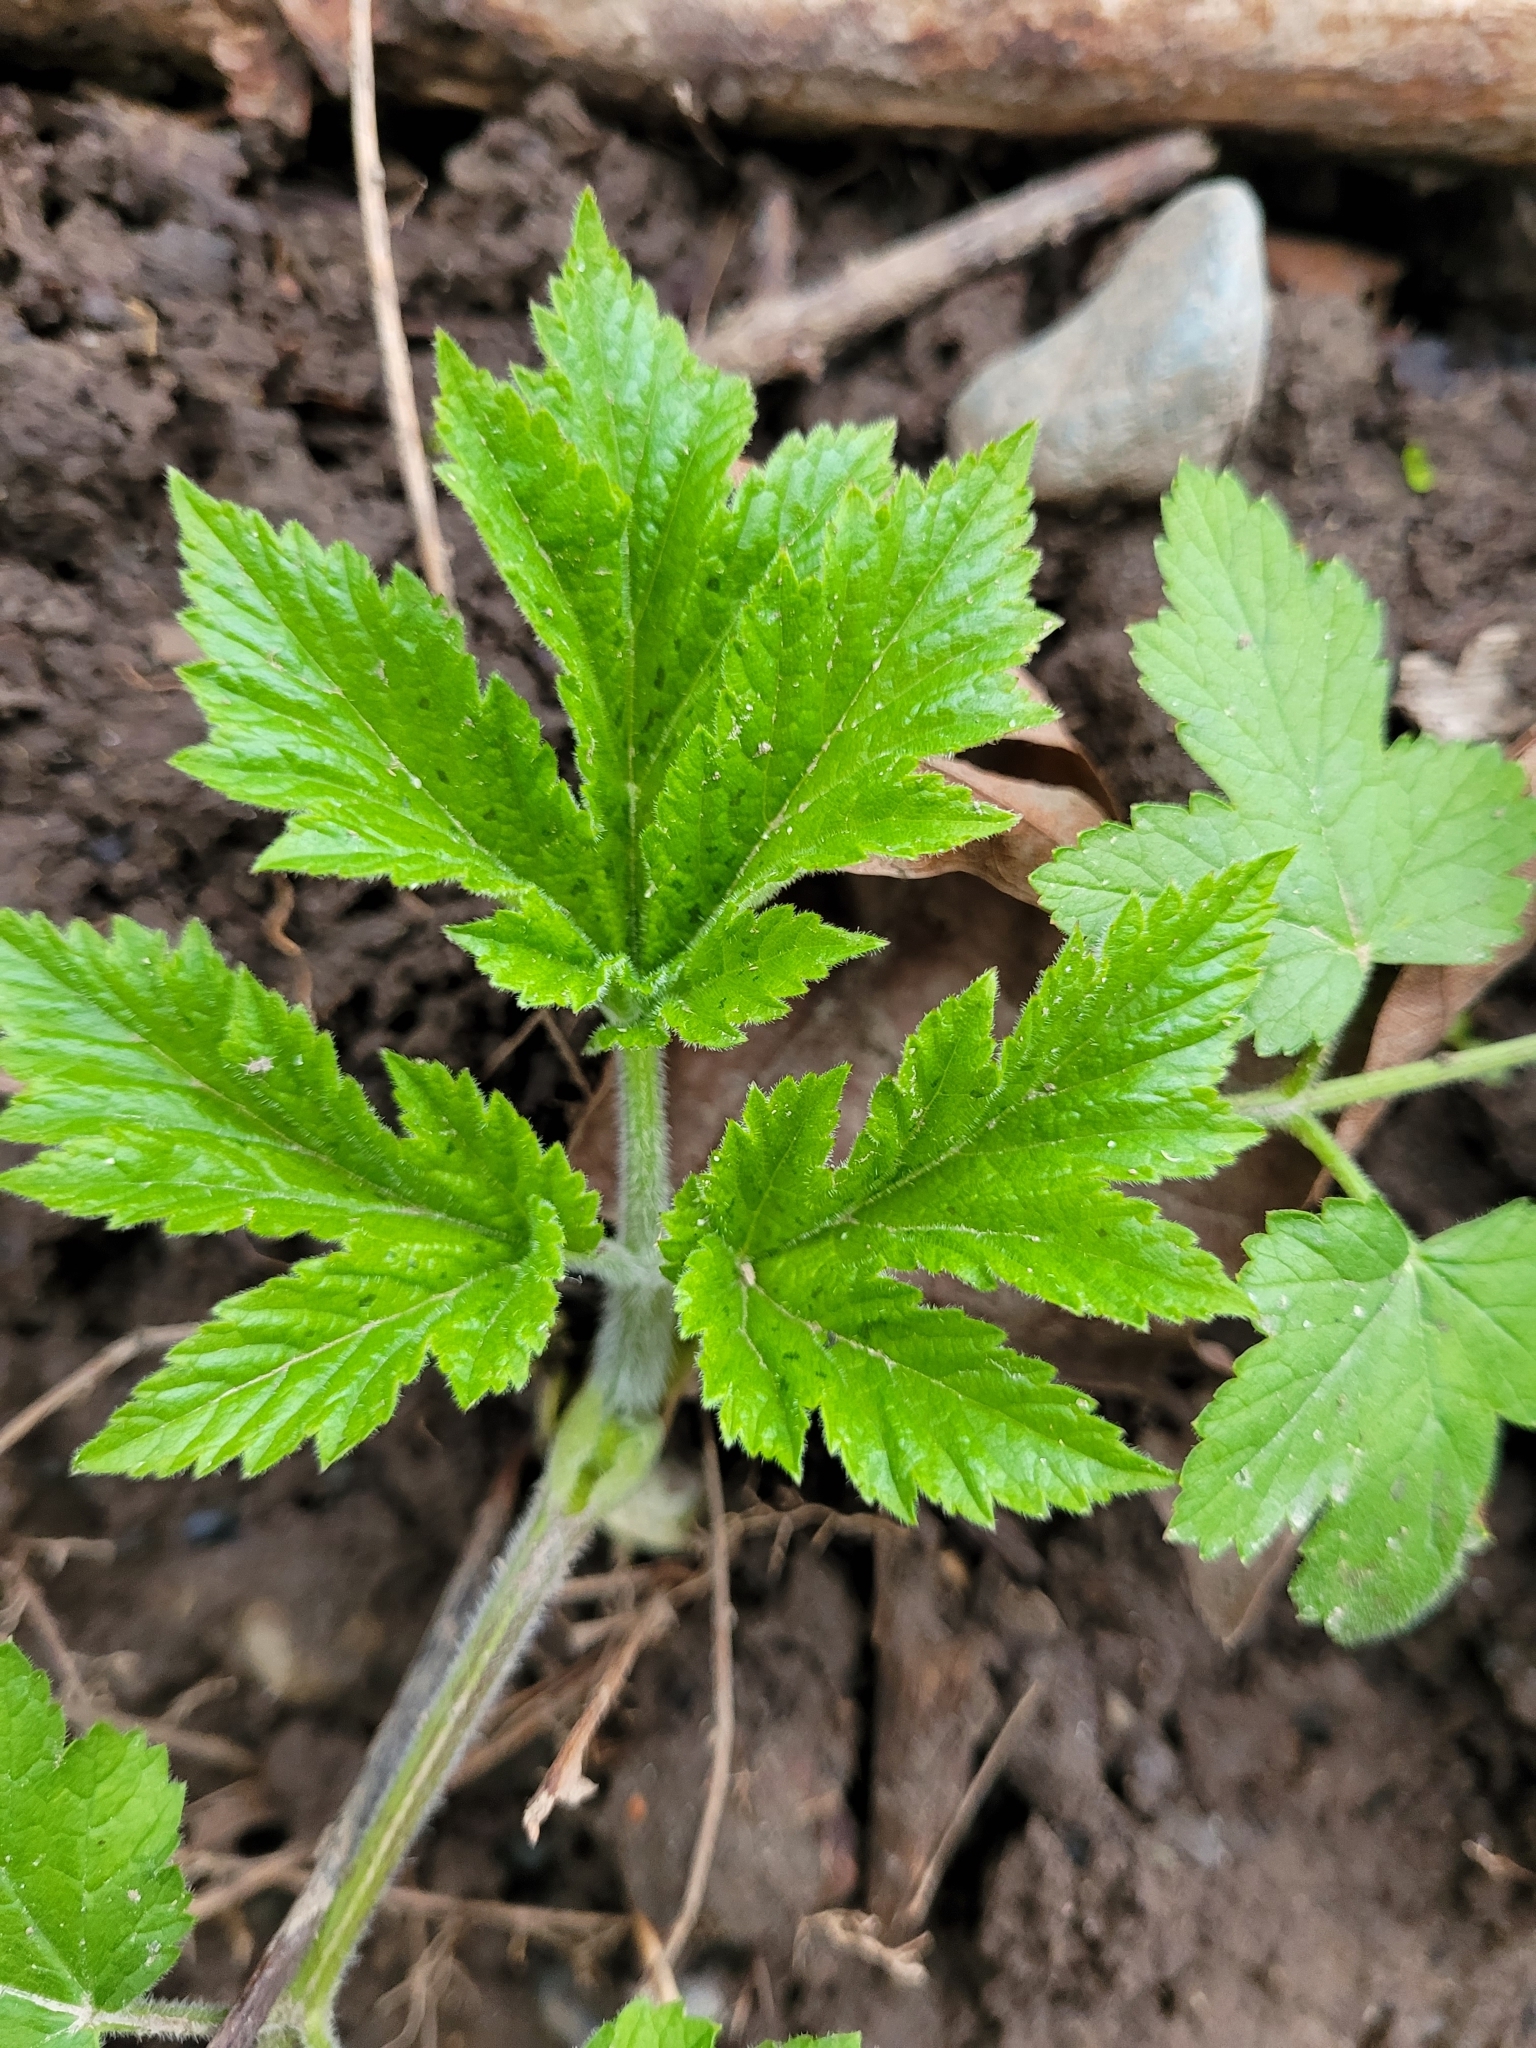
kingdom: Plantae
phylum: Tracheophyta
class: Magnoliopsida
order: Apiales
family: Apiaceae
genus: Heracleum
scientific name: Heracleum maximum
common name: American cow parsnip
